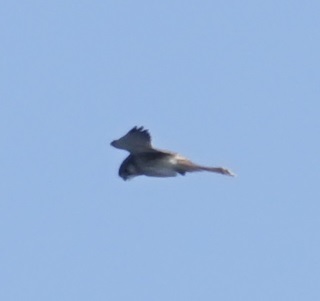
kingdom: Animalia
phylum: Chordata
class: Aves
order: Falconiformes
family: Falconidae
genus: Falco
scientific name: Falco cenchroides
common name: Nankeen kestrel
